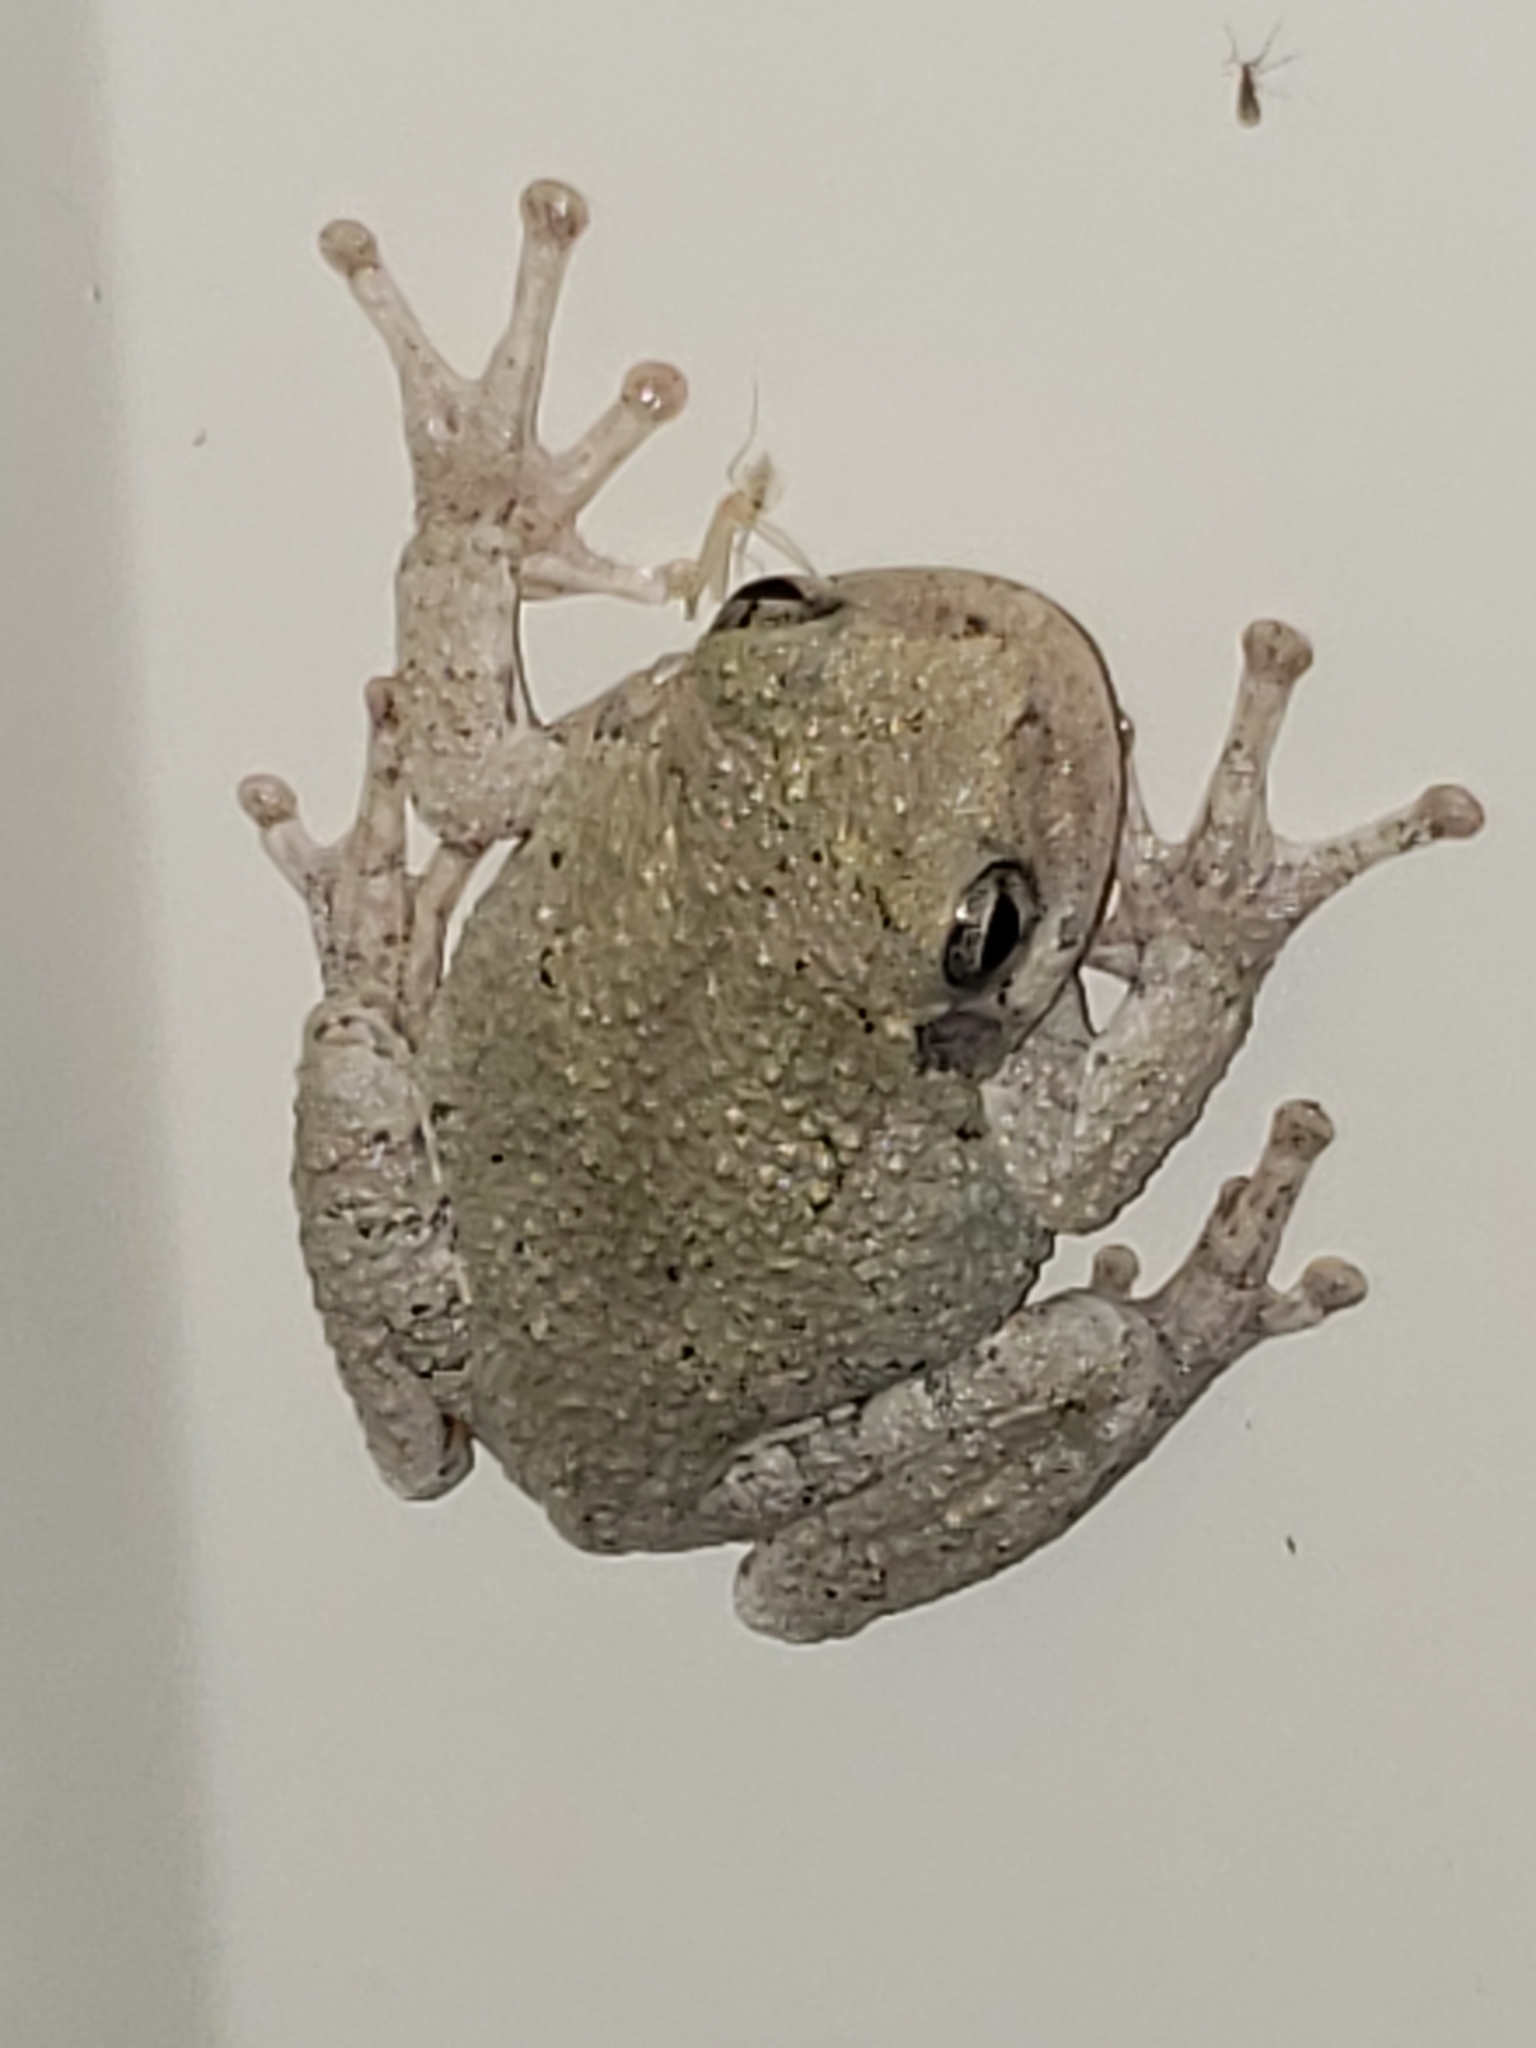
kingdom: Animalia
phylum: Chordata
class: Amphibia
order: Anura
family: Hylidae
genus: Hyla
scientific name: Hyla
